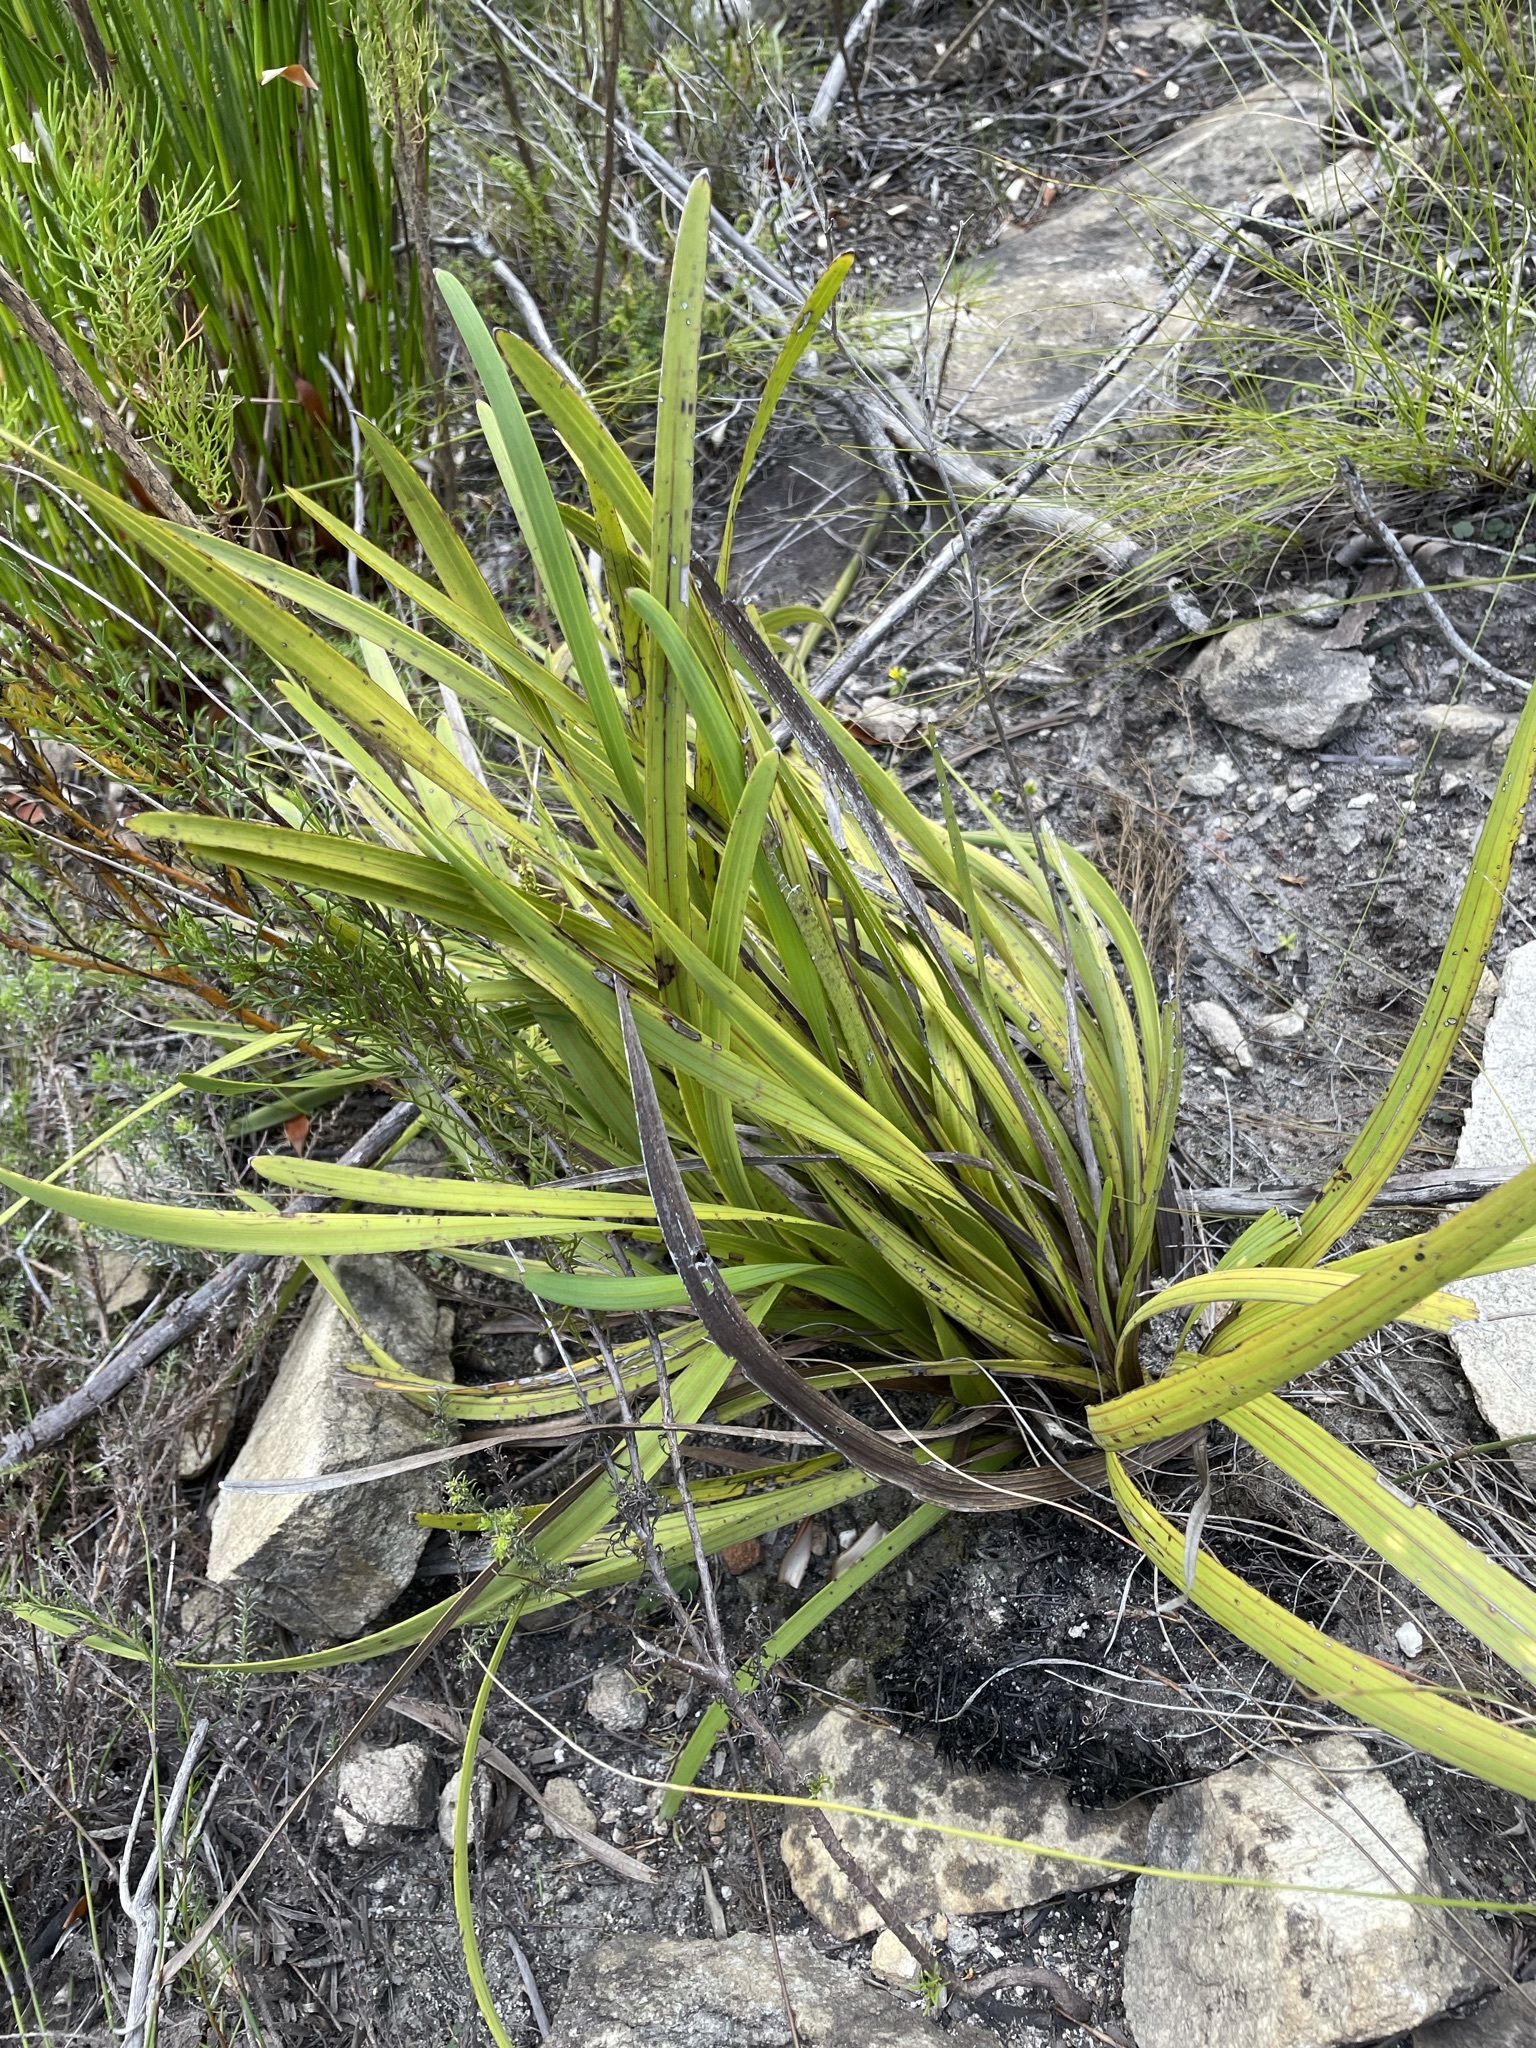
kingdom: Plantae
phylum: Tracheophyta
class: Magnoliopsida
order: Asterales
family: Asteraceae
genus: Corymbium
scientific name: Corymbium glabrum
